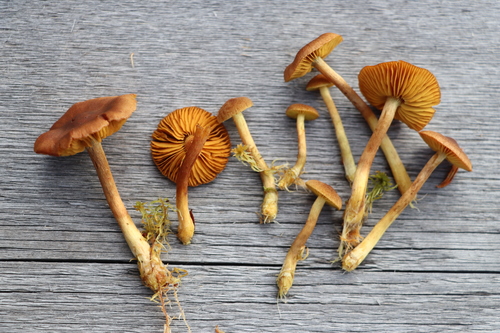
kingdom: Fungi
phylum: Basidiomycota
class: Agaricomycetes
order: Agaricales
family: Cortinariaceae
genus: Cortinarius
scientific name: Cortinarius tubarius
